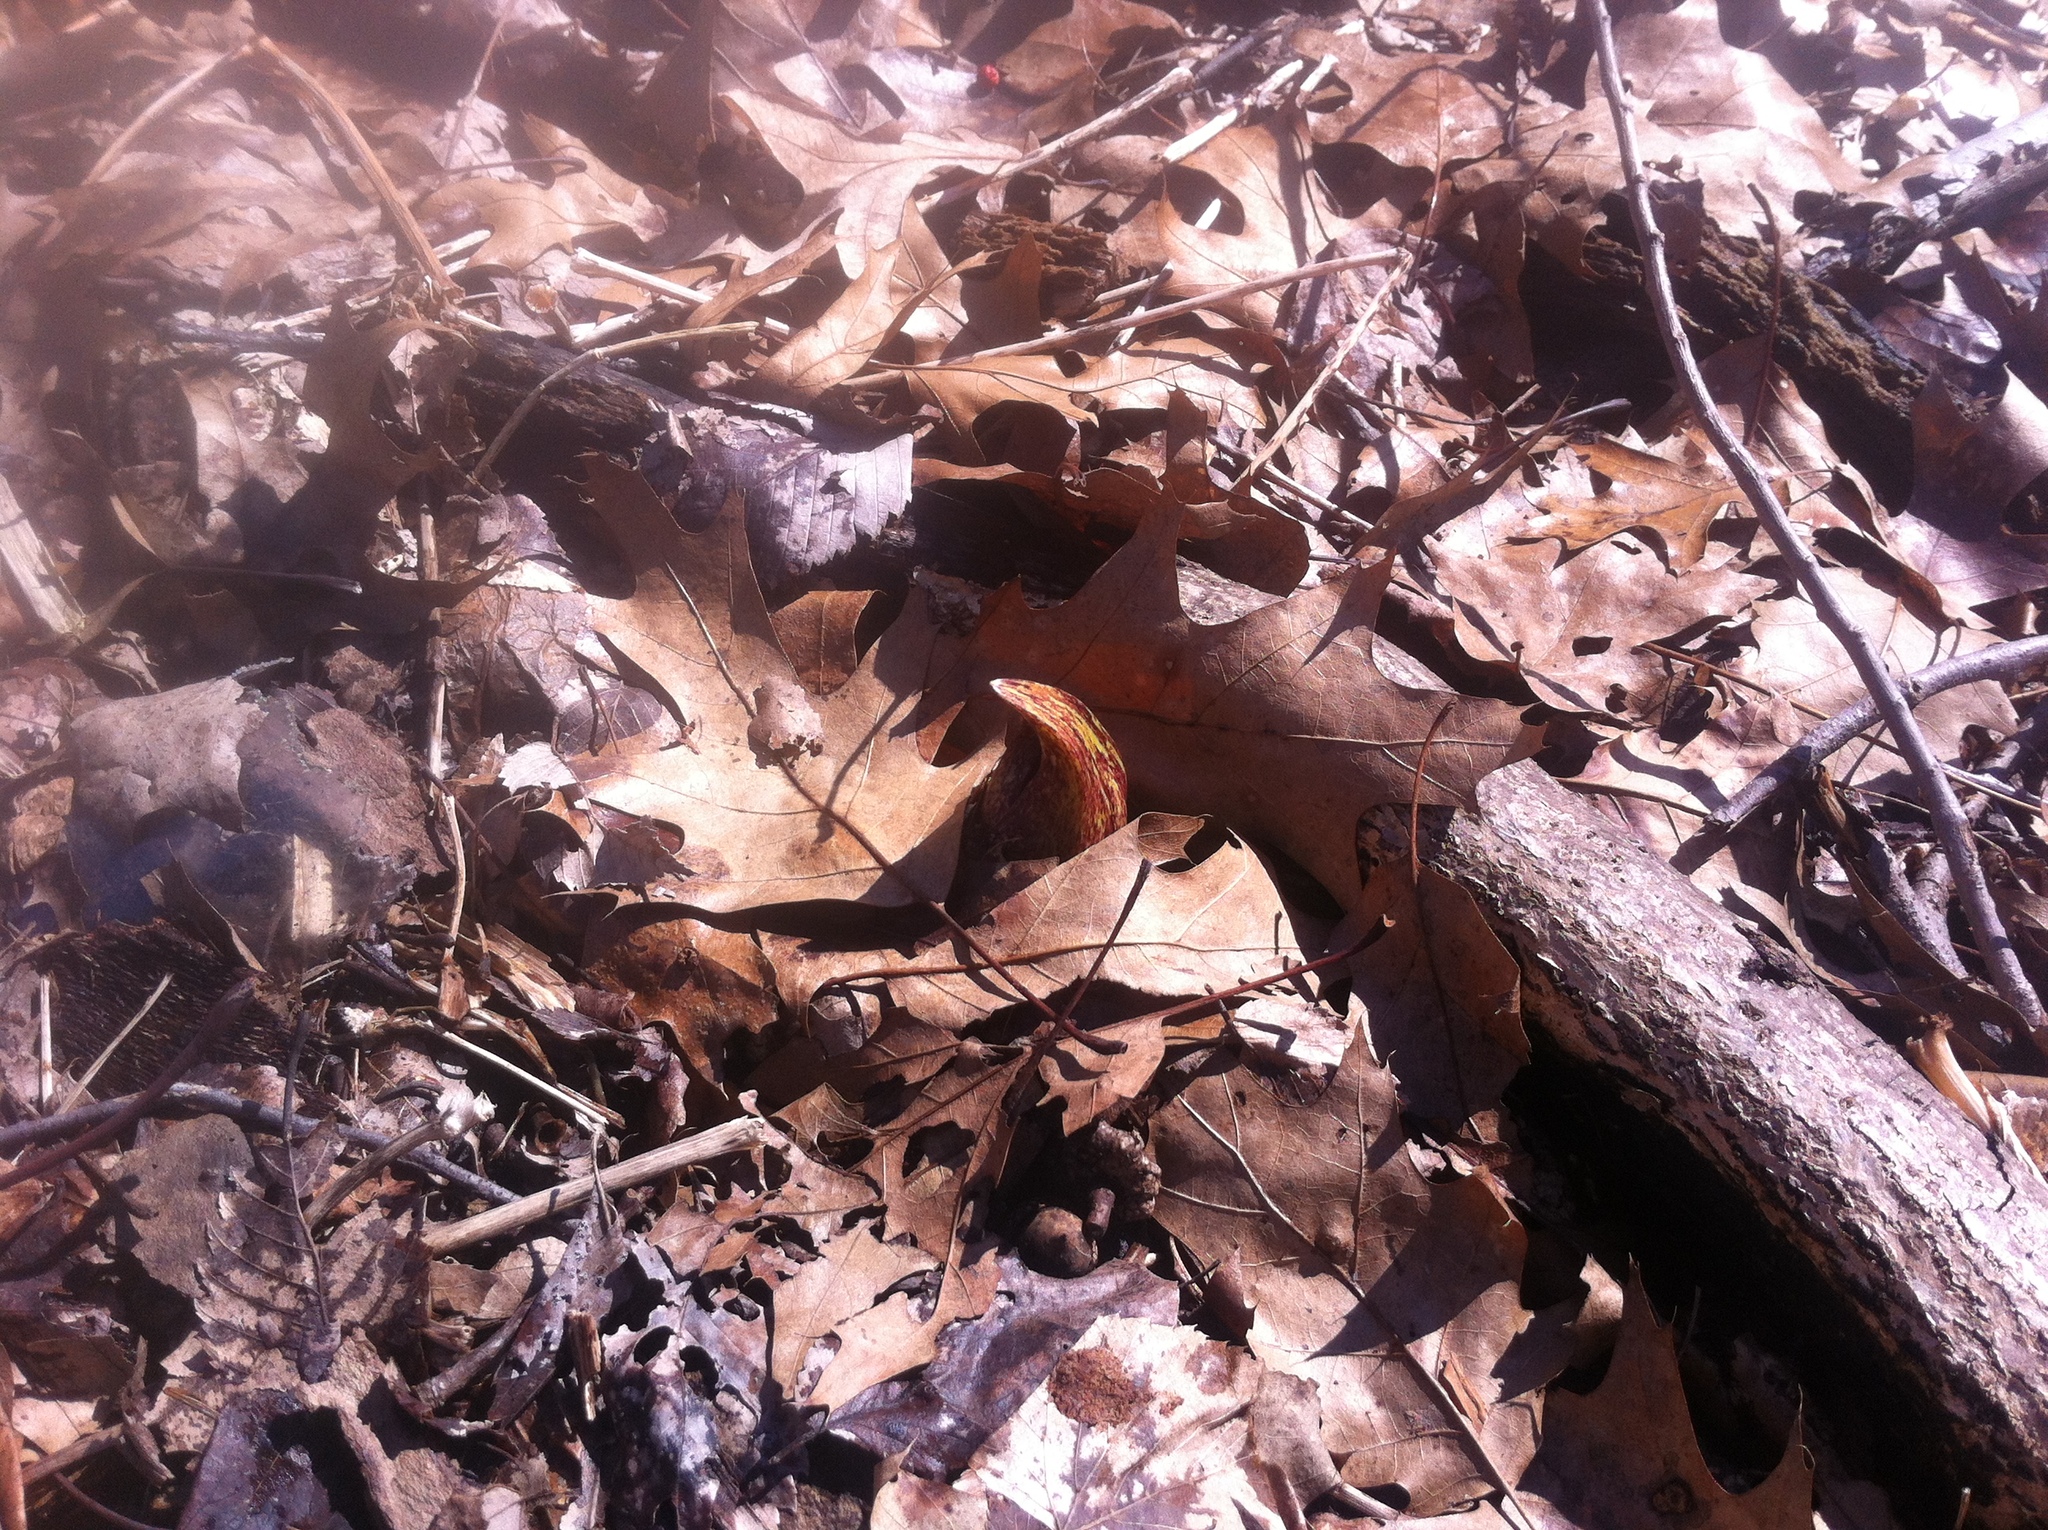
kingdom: Plantae
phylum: Tracheophyta
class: Liliopsida
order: Alismatales
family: Araceae
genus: Symplocarpus
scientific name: Symplocarpus foetidus
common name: Eastern skunk cabbage
